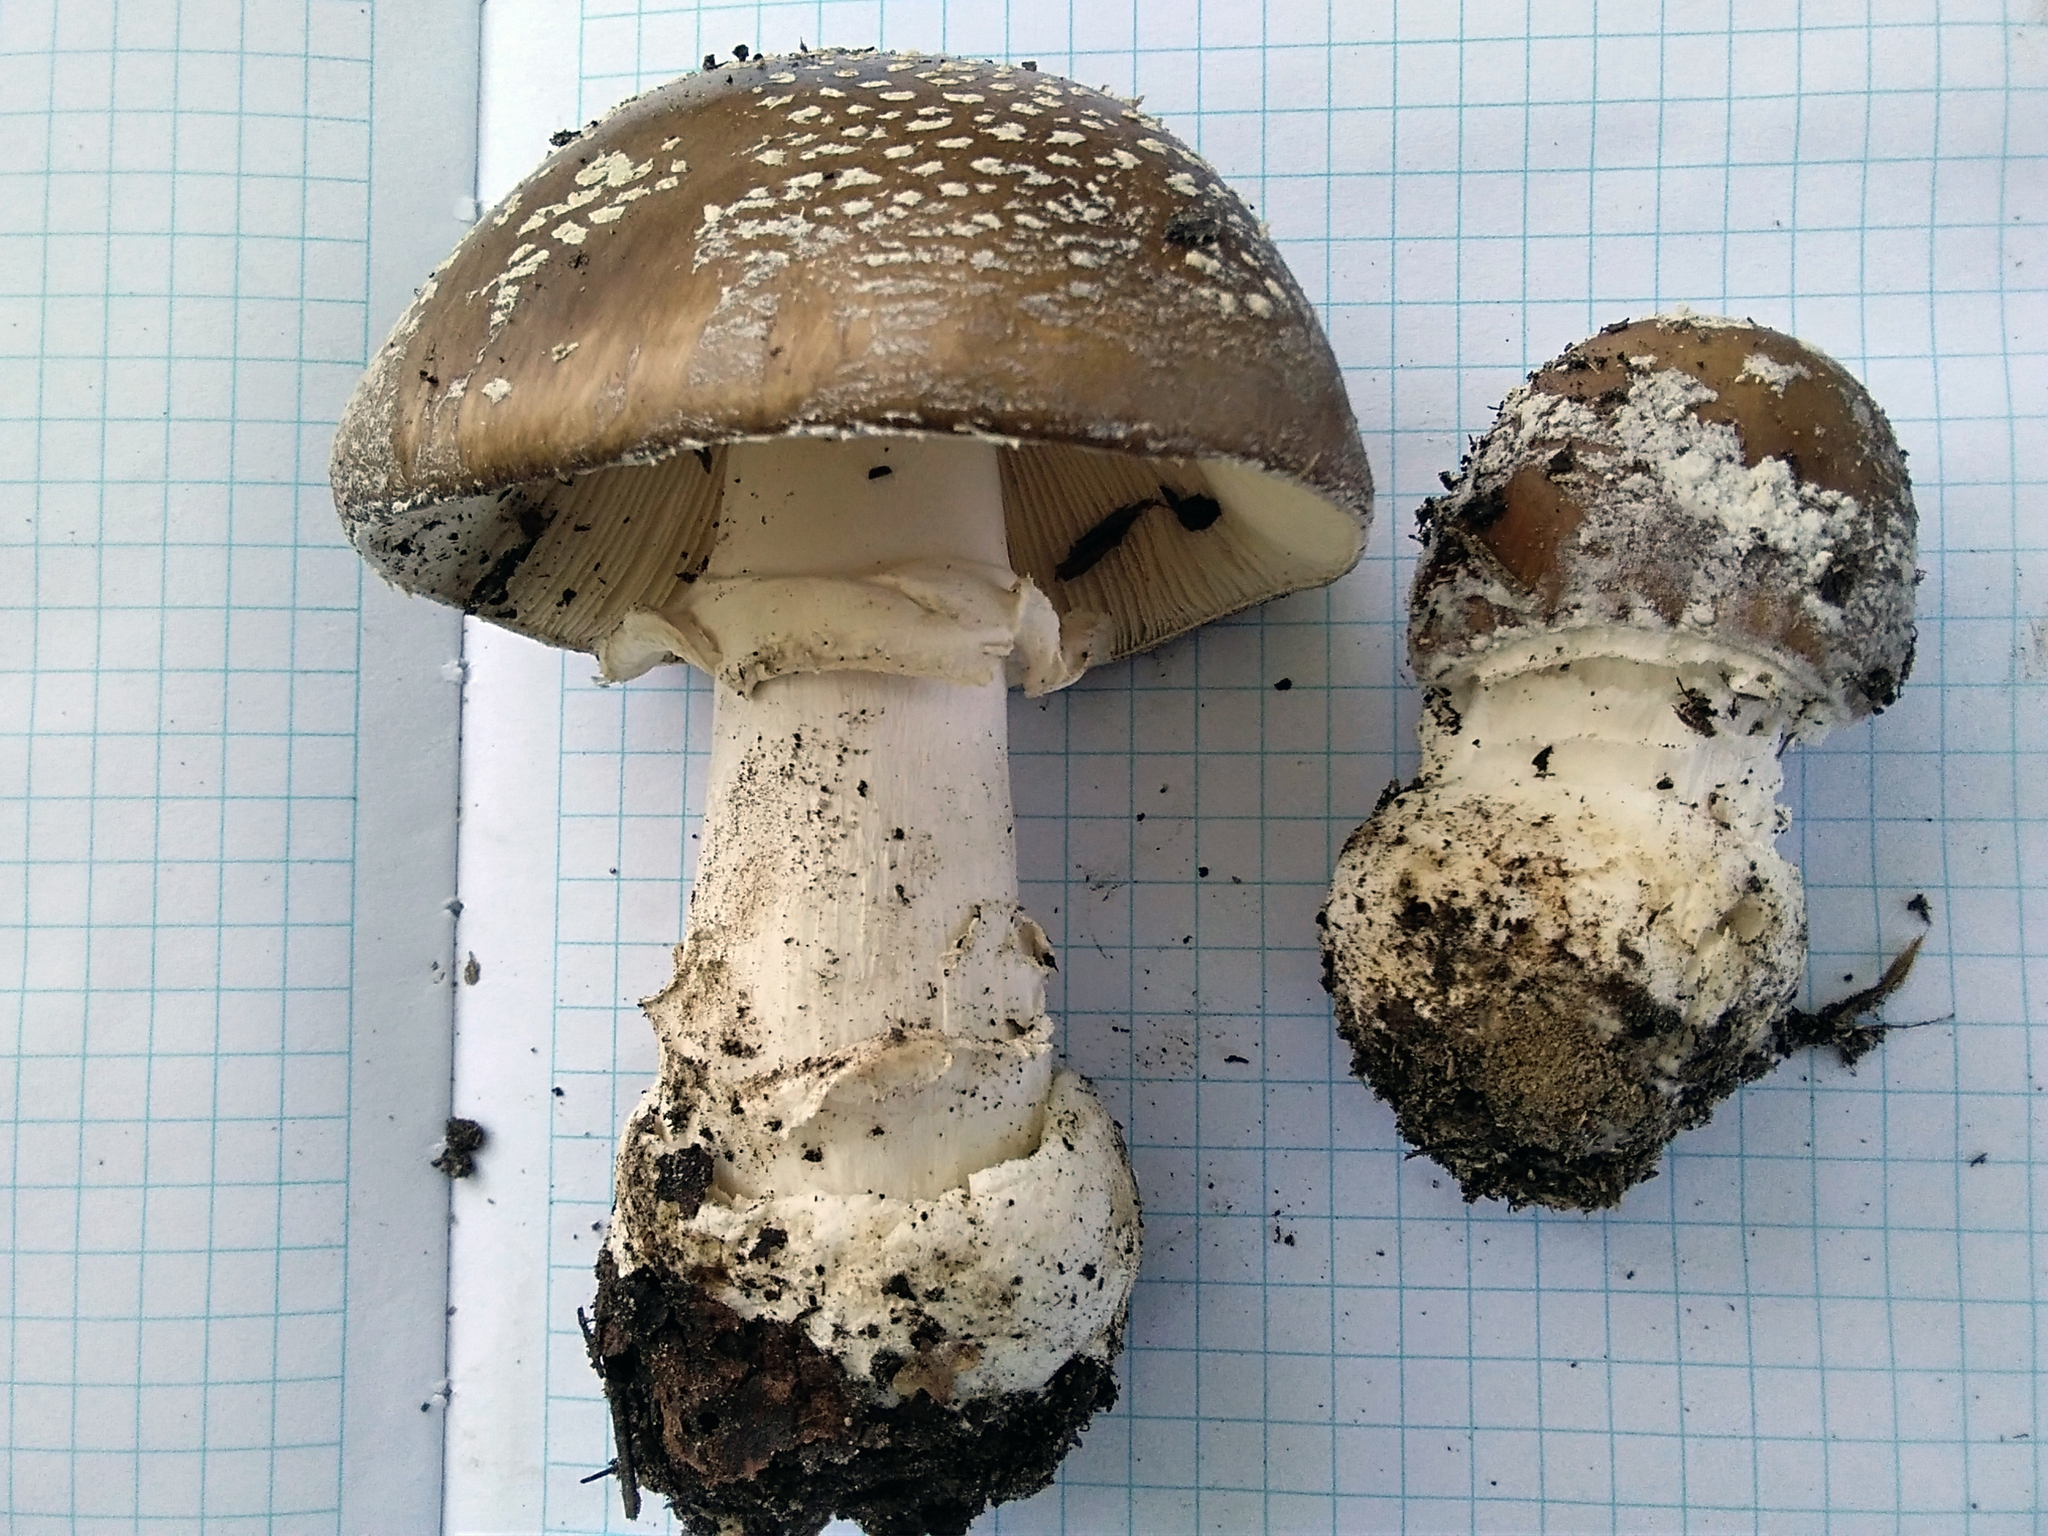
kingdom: Fungi
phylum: Basidiomycota
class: Agaricomycetes
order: Agaricales
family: Amanitaceae
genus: Amanita
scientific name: Amanita pantherina
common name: Panthercap
